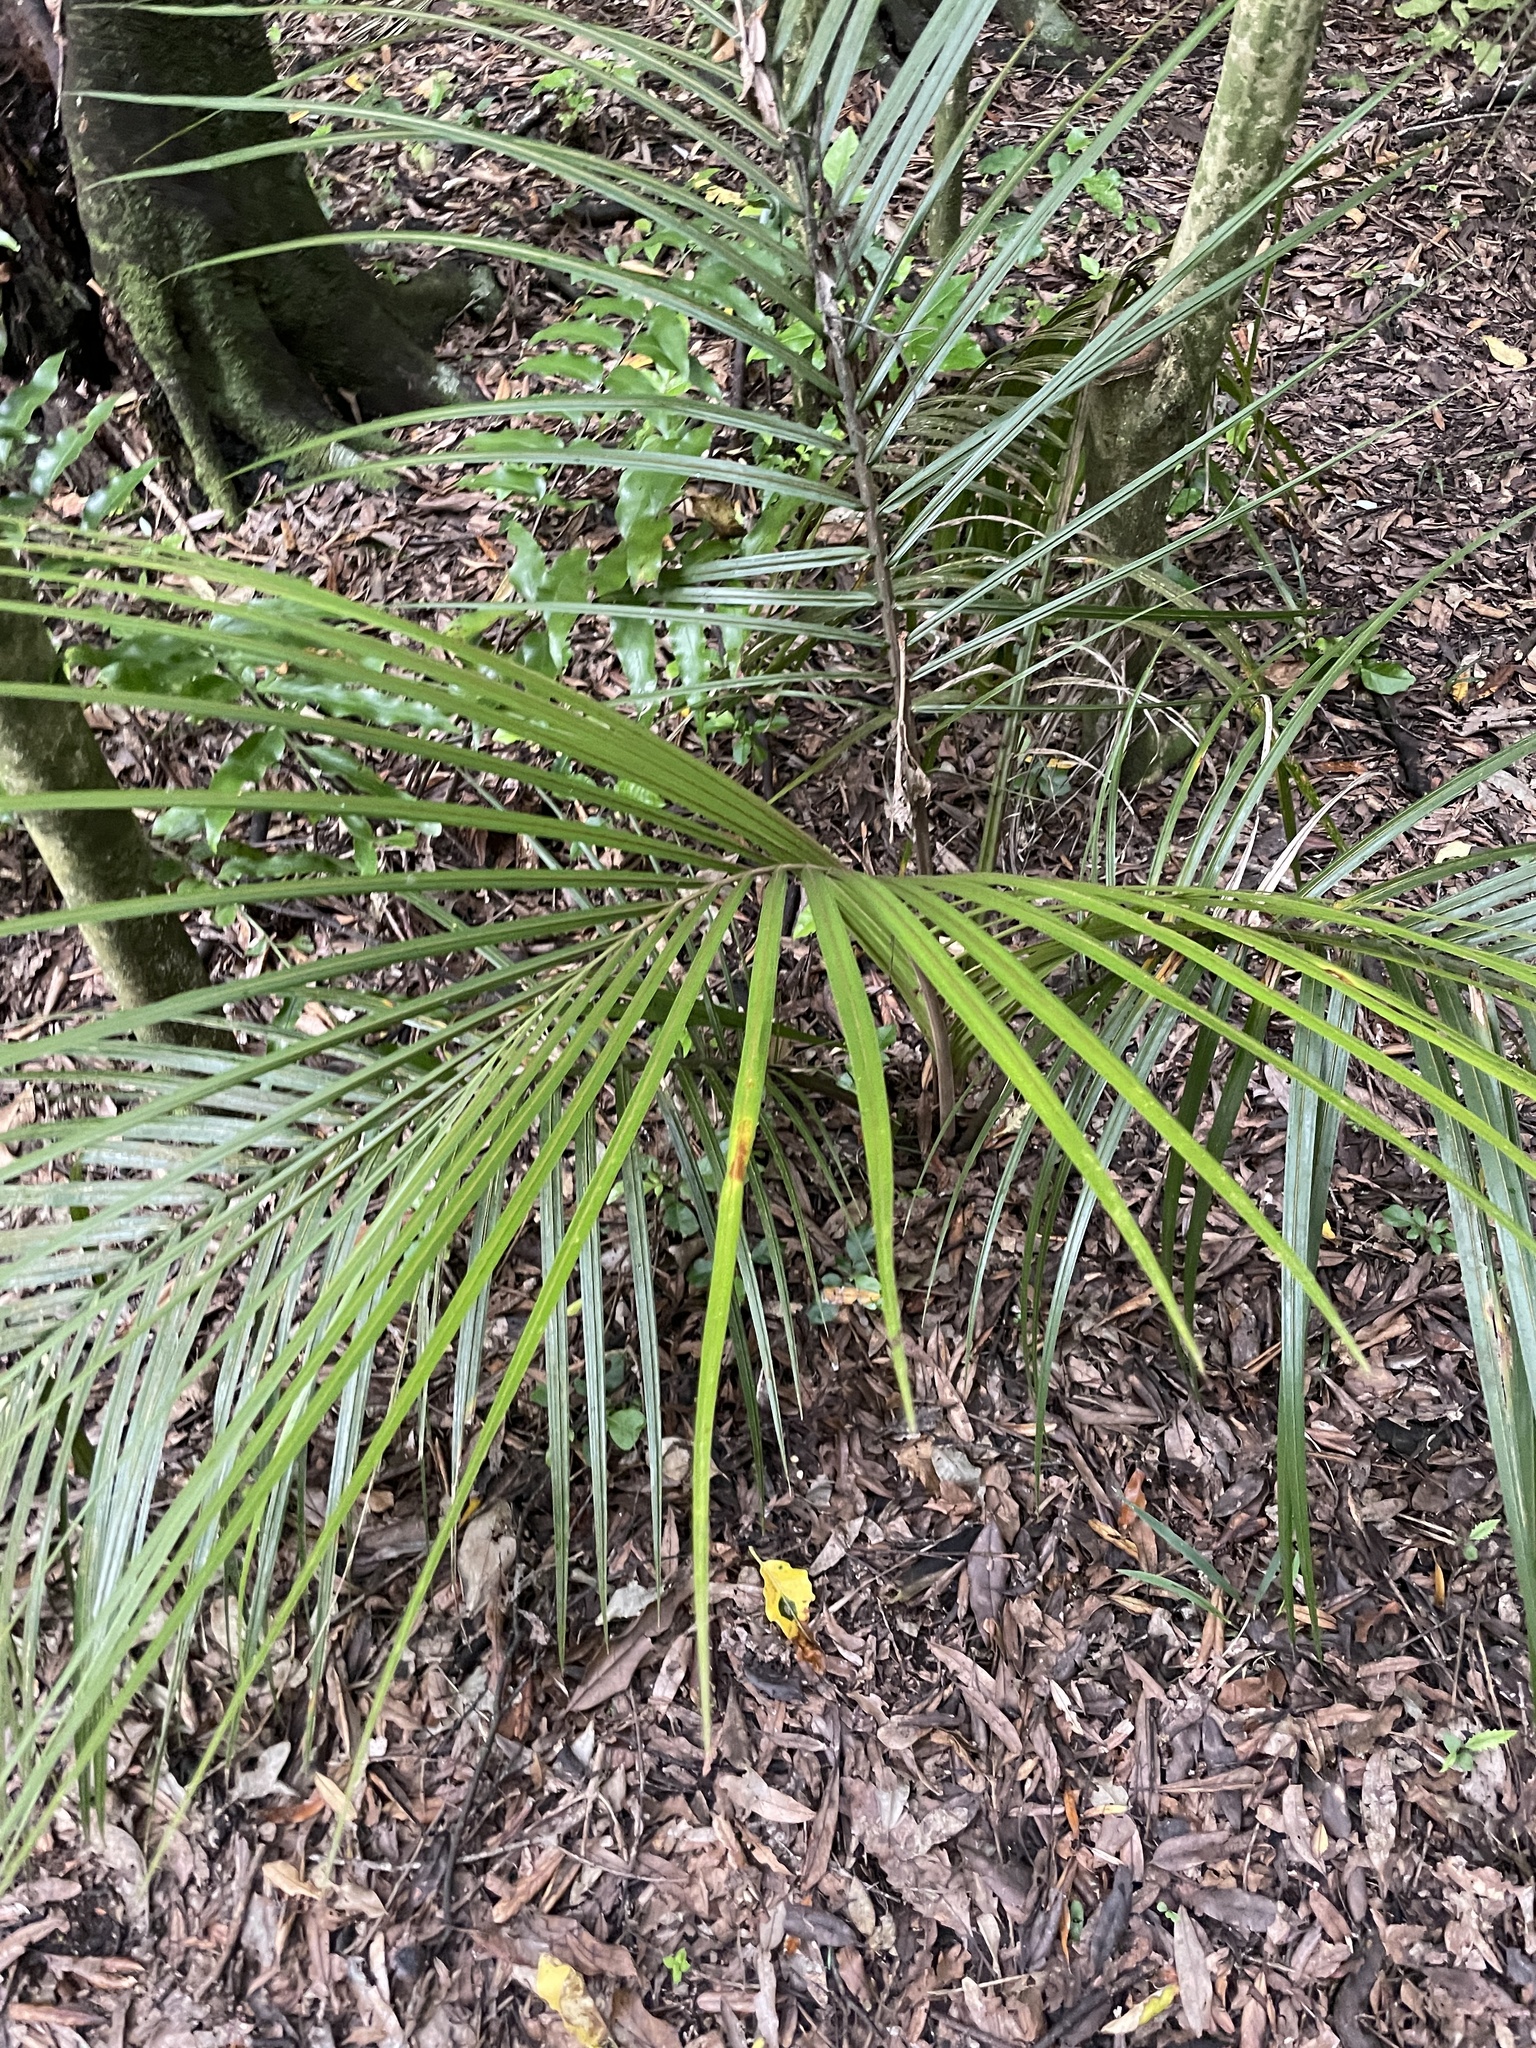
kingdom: Plantae
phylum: Tracheophyta
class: Liliopsida
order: Arecales
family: Arecaceae
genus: Rhopalostylis
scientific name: Rhopalostylis sapida
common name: Feather-duster palm
